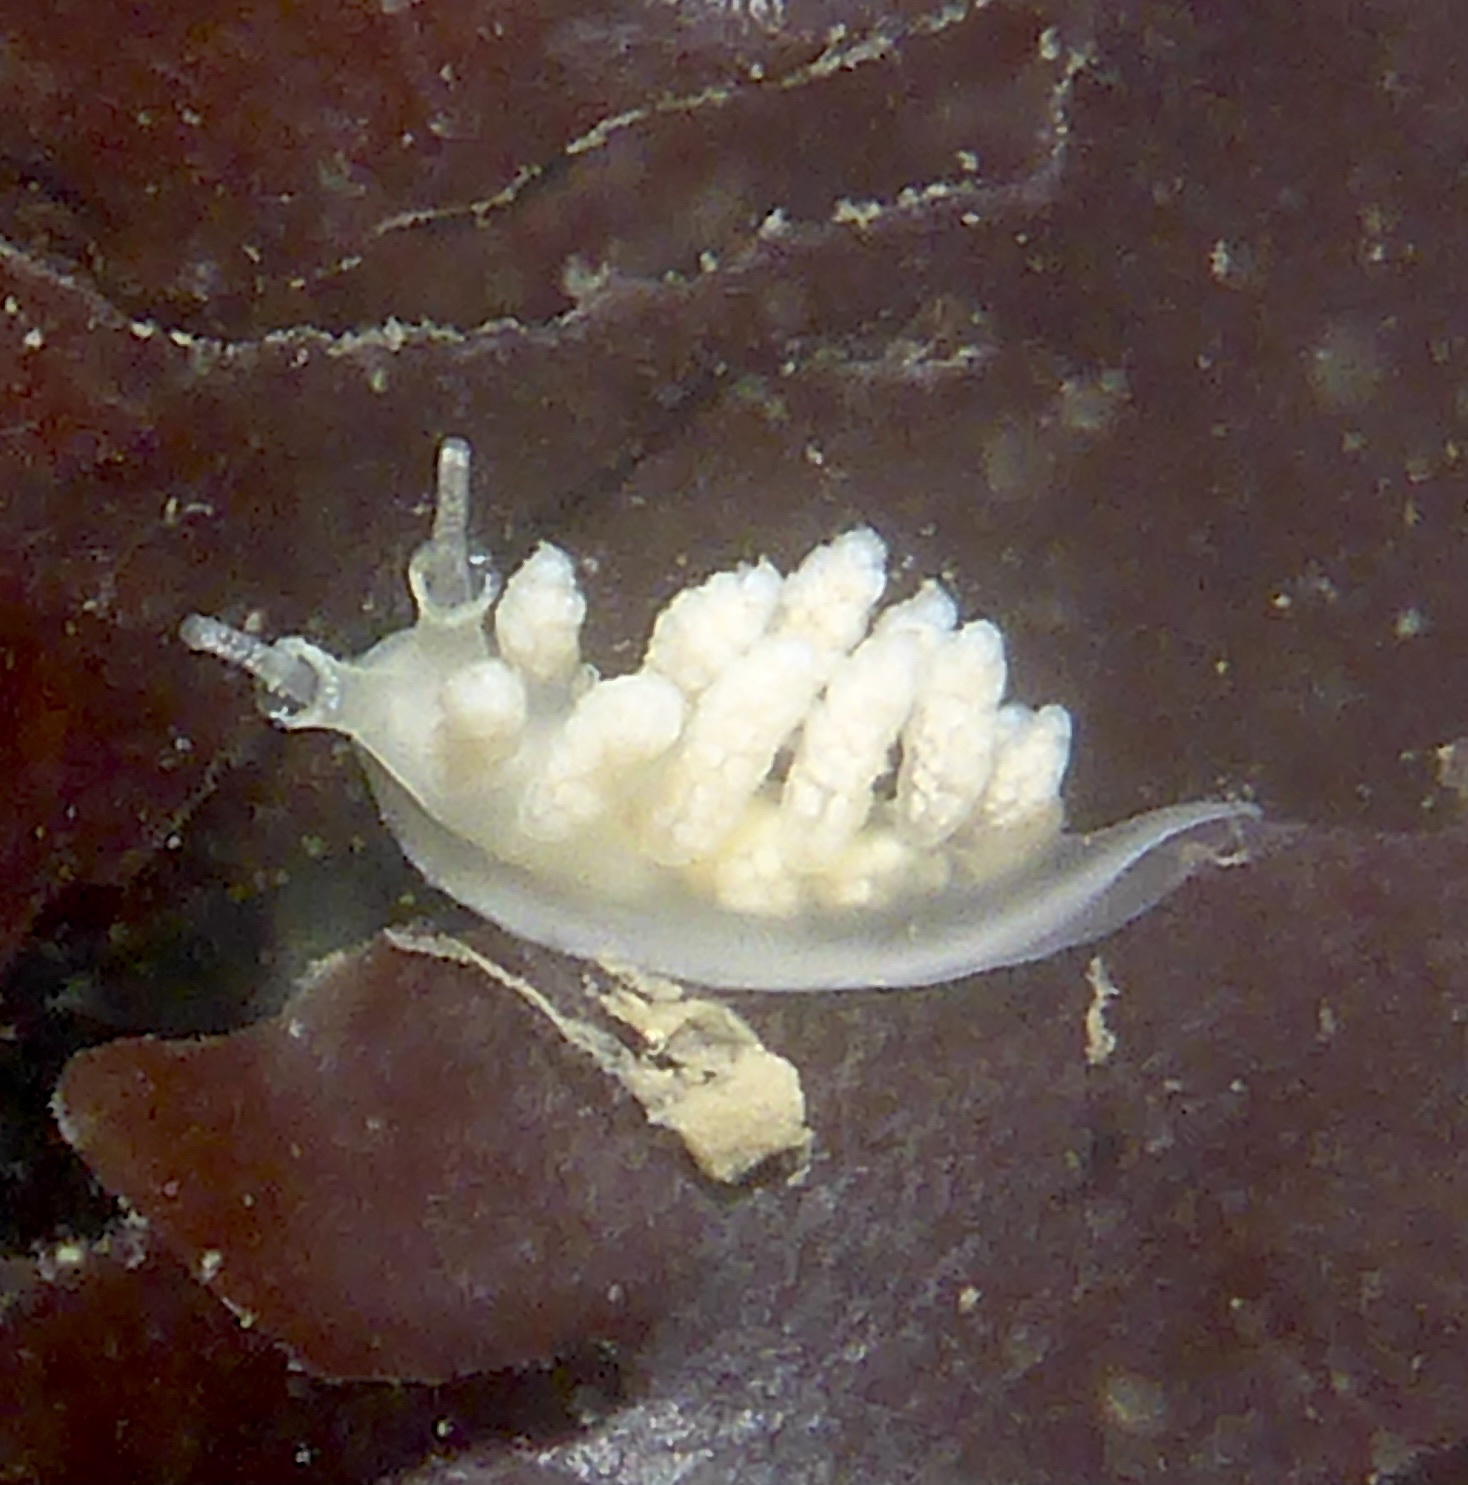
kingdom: Animalia
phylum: Mollusca
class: Gastropoda
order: Nudibranchia
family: Dotidae
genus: Doto
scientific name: Doto amyra
